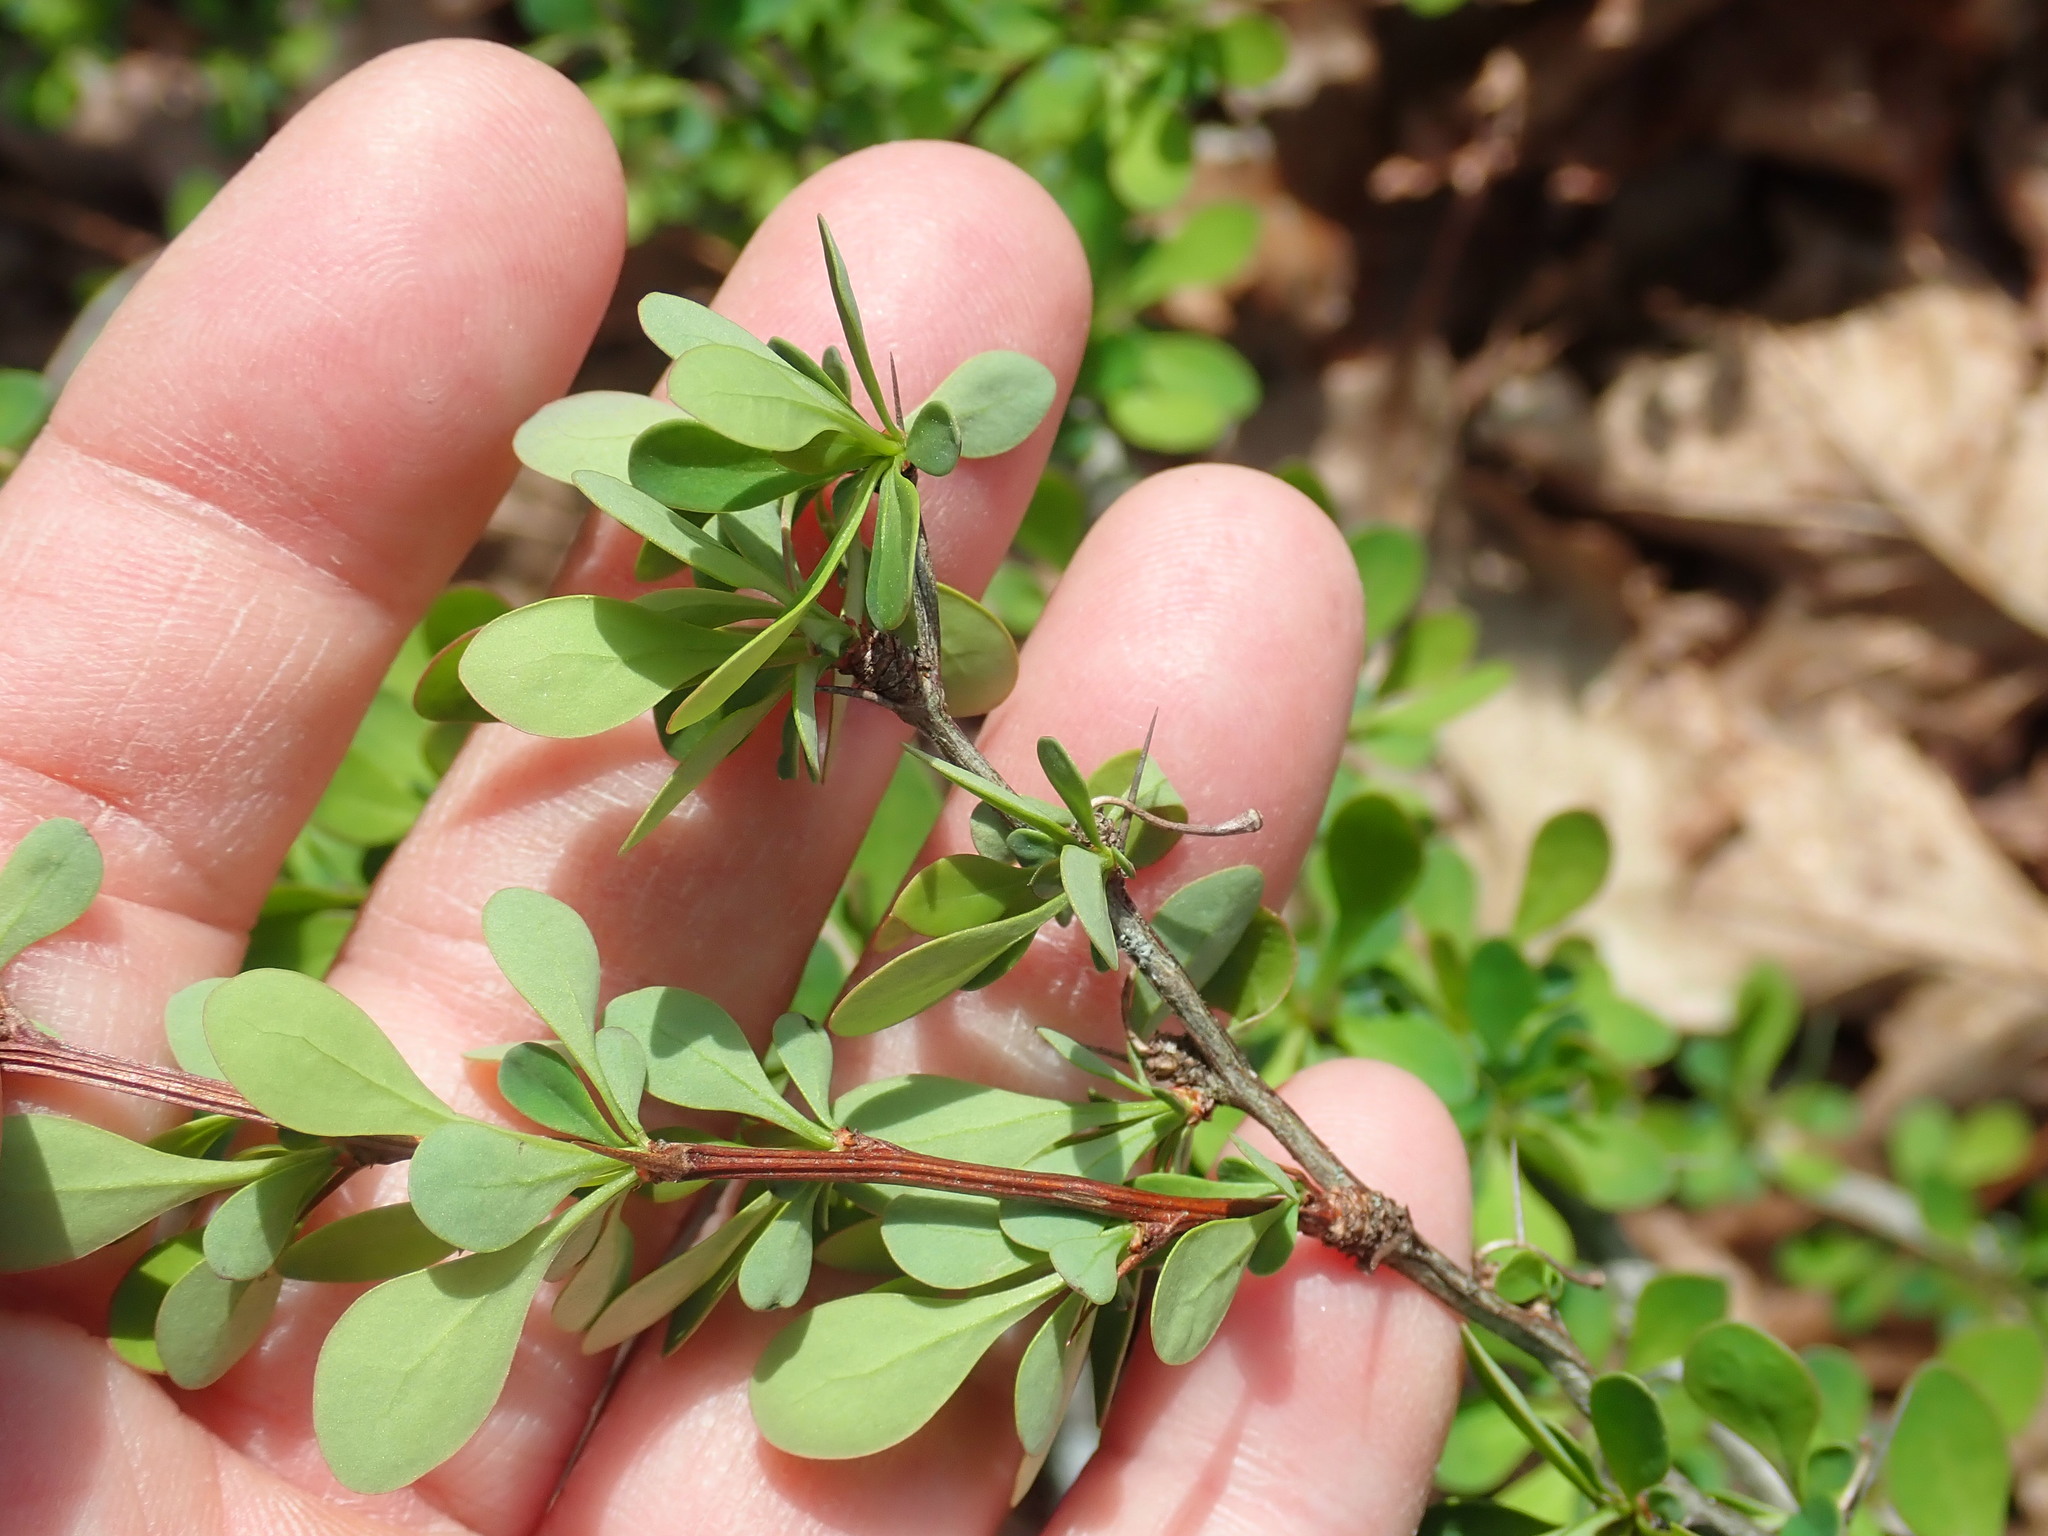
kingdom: Plantae
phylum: Tracheophyta
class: Magnoliopsida
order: Ranunculales
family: Berberidaceae
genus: Berberis
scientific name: Berberis thunbergii
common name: Japanese barberry
